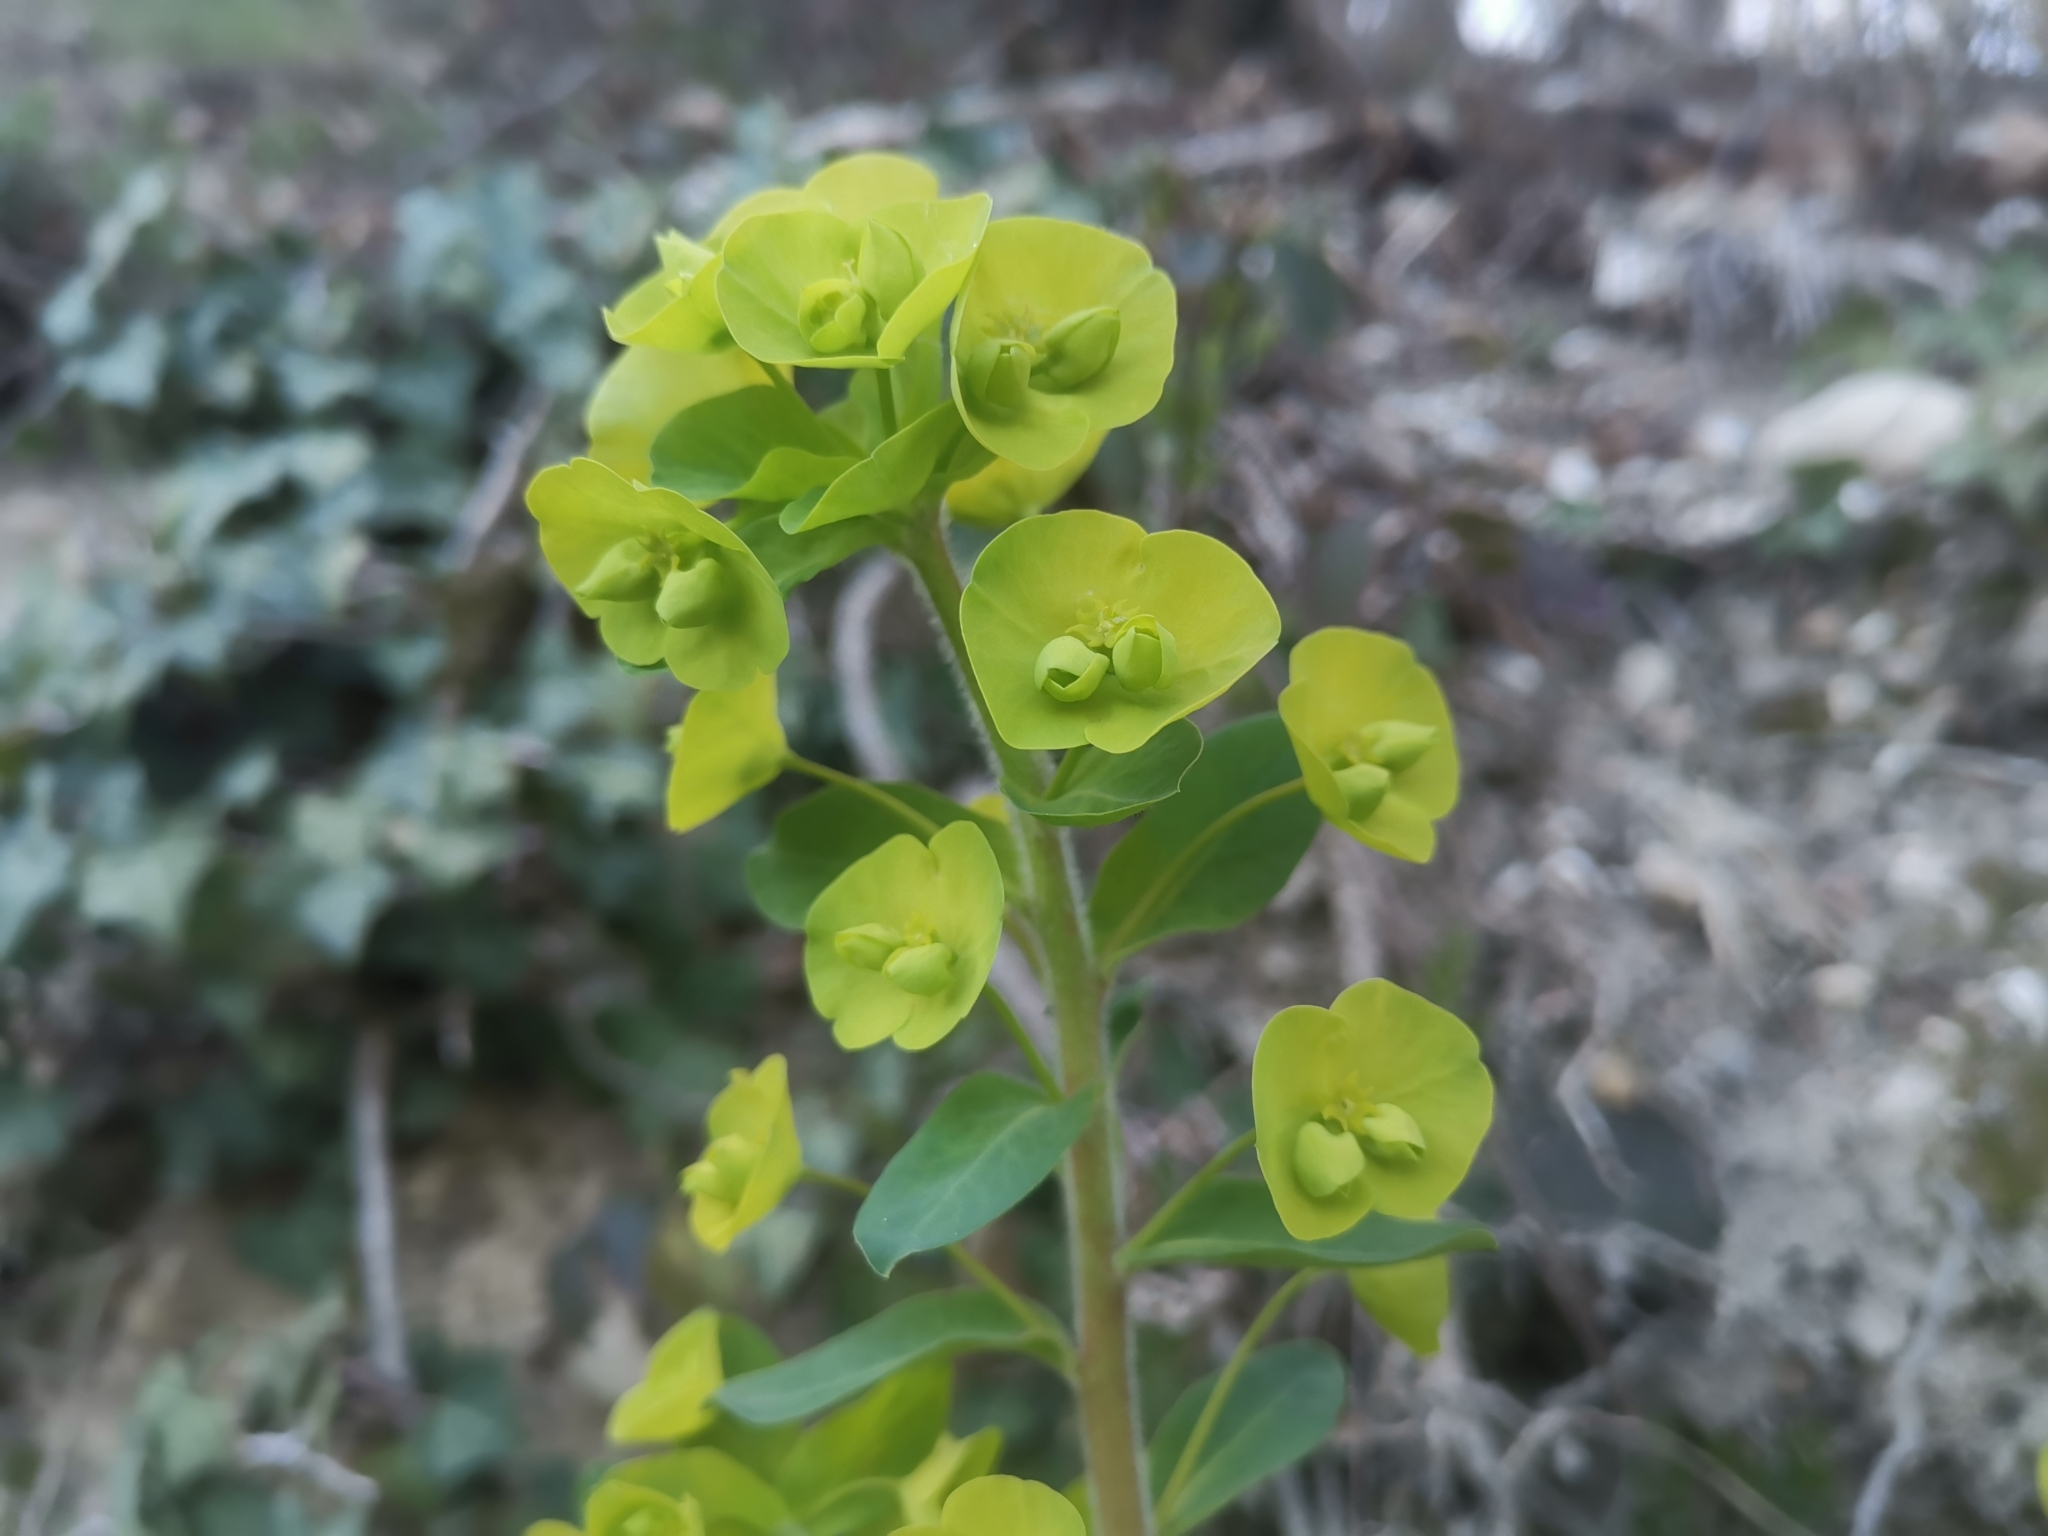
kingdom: Plantae
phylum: Tracheophyta
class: Magnoliopsida
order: Malpighiales
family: Euphorbiaceae
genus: Euphorbia
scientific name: Euphorbia amygdaloides
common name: Wood spurge
